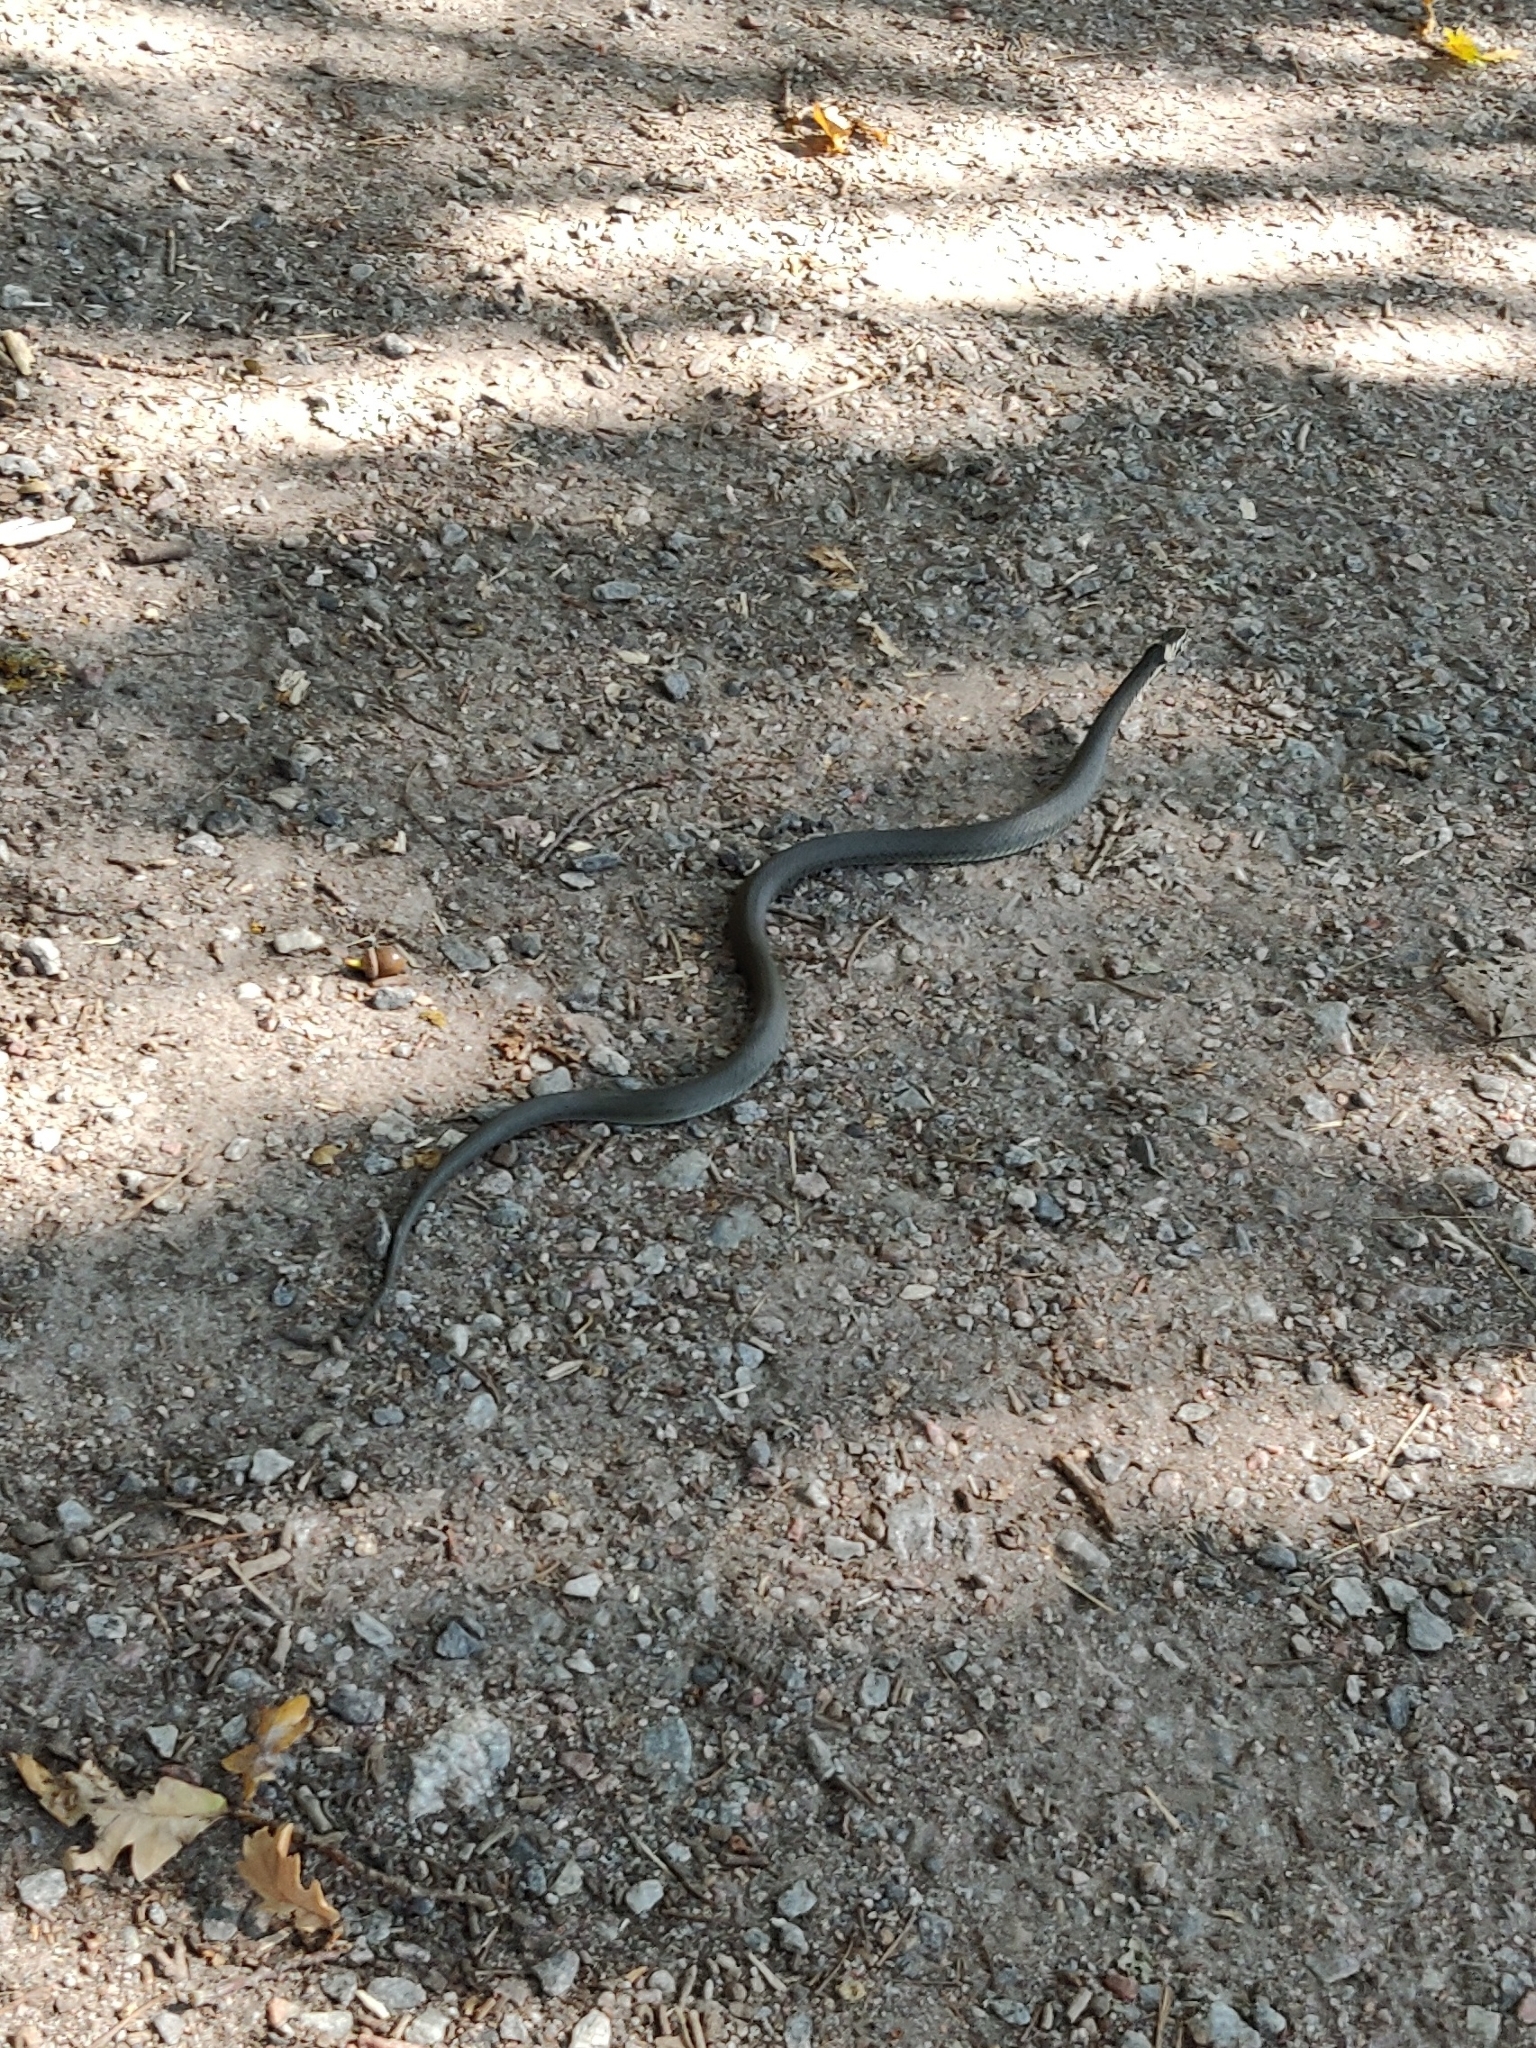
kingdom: Animalia
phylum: Chordata
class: Squamata
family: Colubridae
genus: Natrix
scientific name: Natrix natrix
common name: Grass snake
